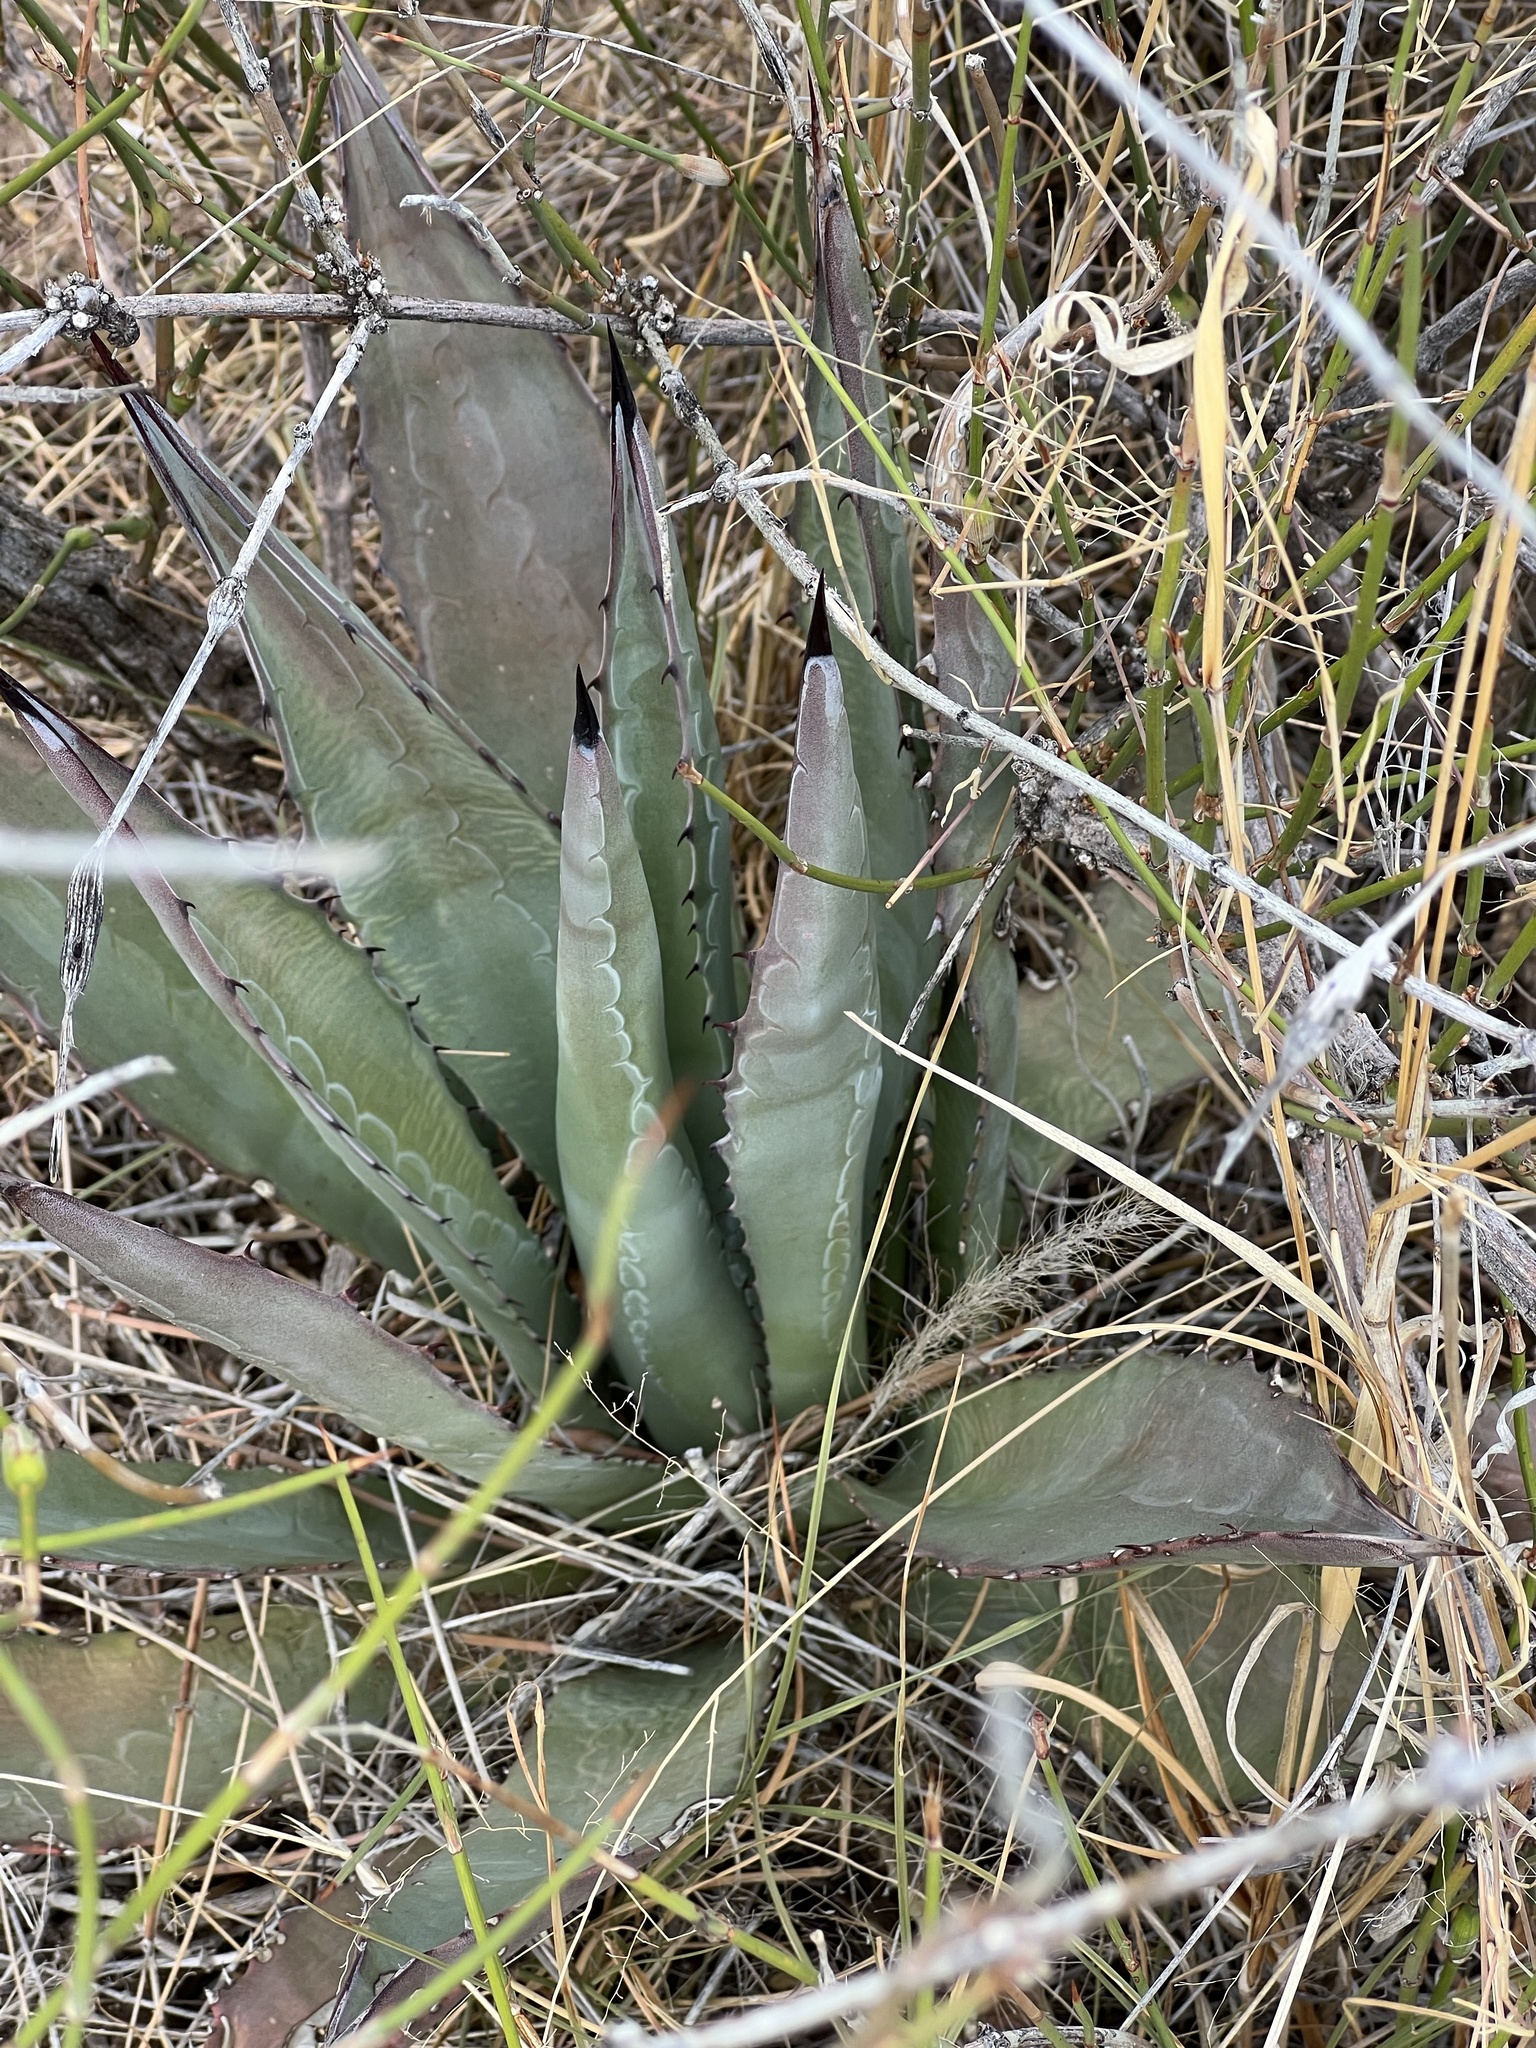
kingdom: Plantae
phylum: Tracheophyta
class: Liliopsida
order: Asparagales
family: Asparagaceae
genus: Agave
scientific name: Agave palmeri
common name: Palmer agave
